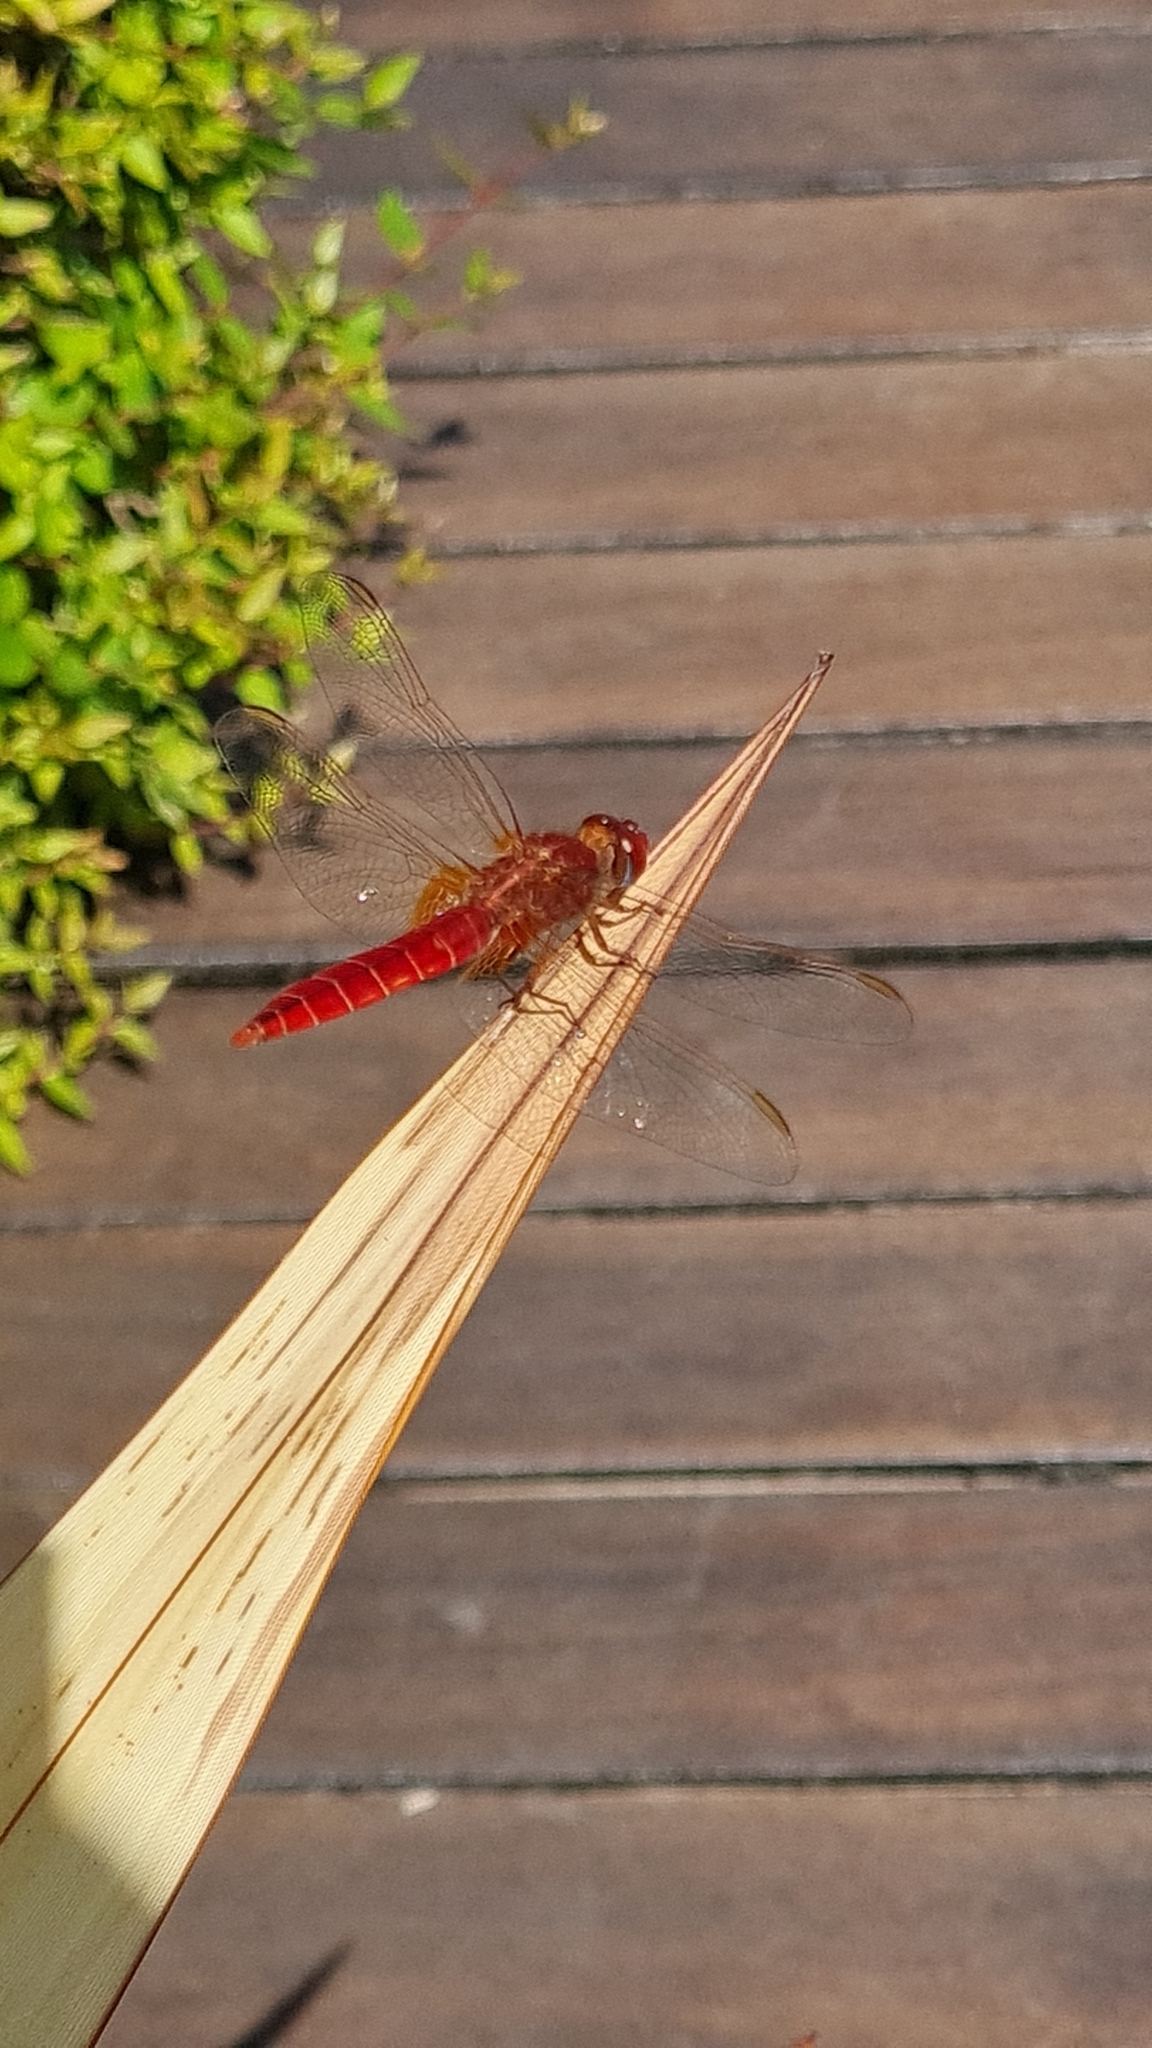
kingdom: Animalia
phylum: Arthropoda
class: Insecta
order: Odonata
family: Libellulidae
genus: Crocothemis
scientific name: Crocothemis erythraea
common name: Scarlet dragonfly
